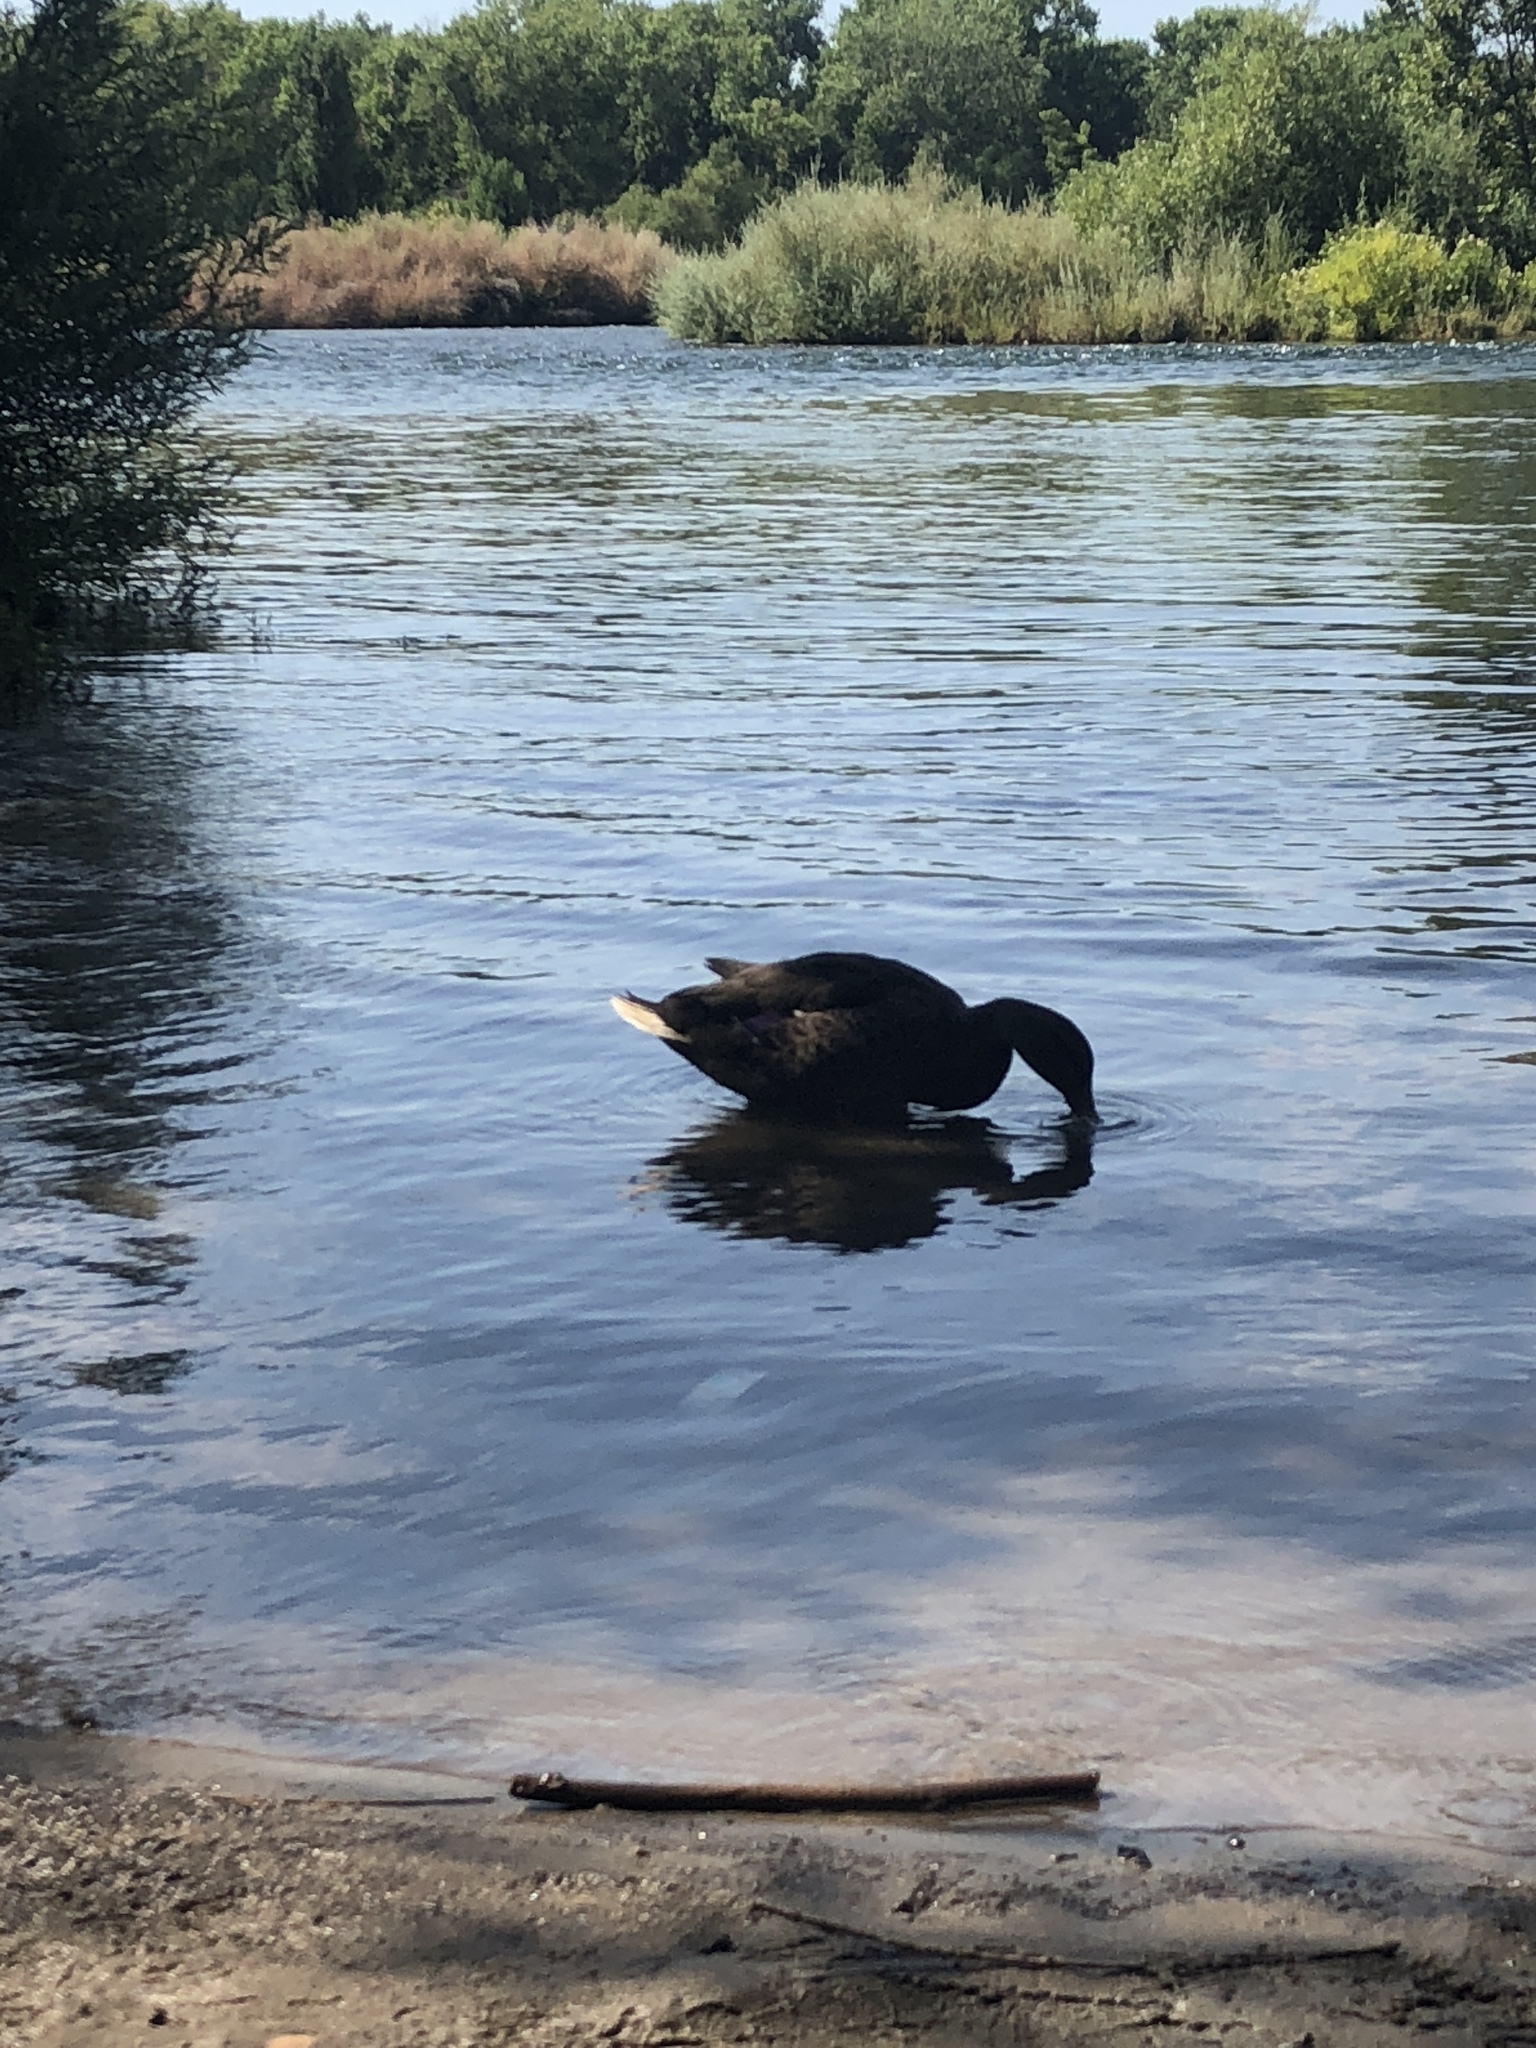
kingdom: Animalia
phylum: Chordata
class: Aves
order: Anseriformes
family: Anatidae
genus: Anas
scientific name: Anas platyrhynchos
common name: Mallard
